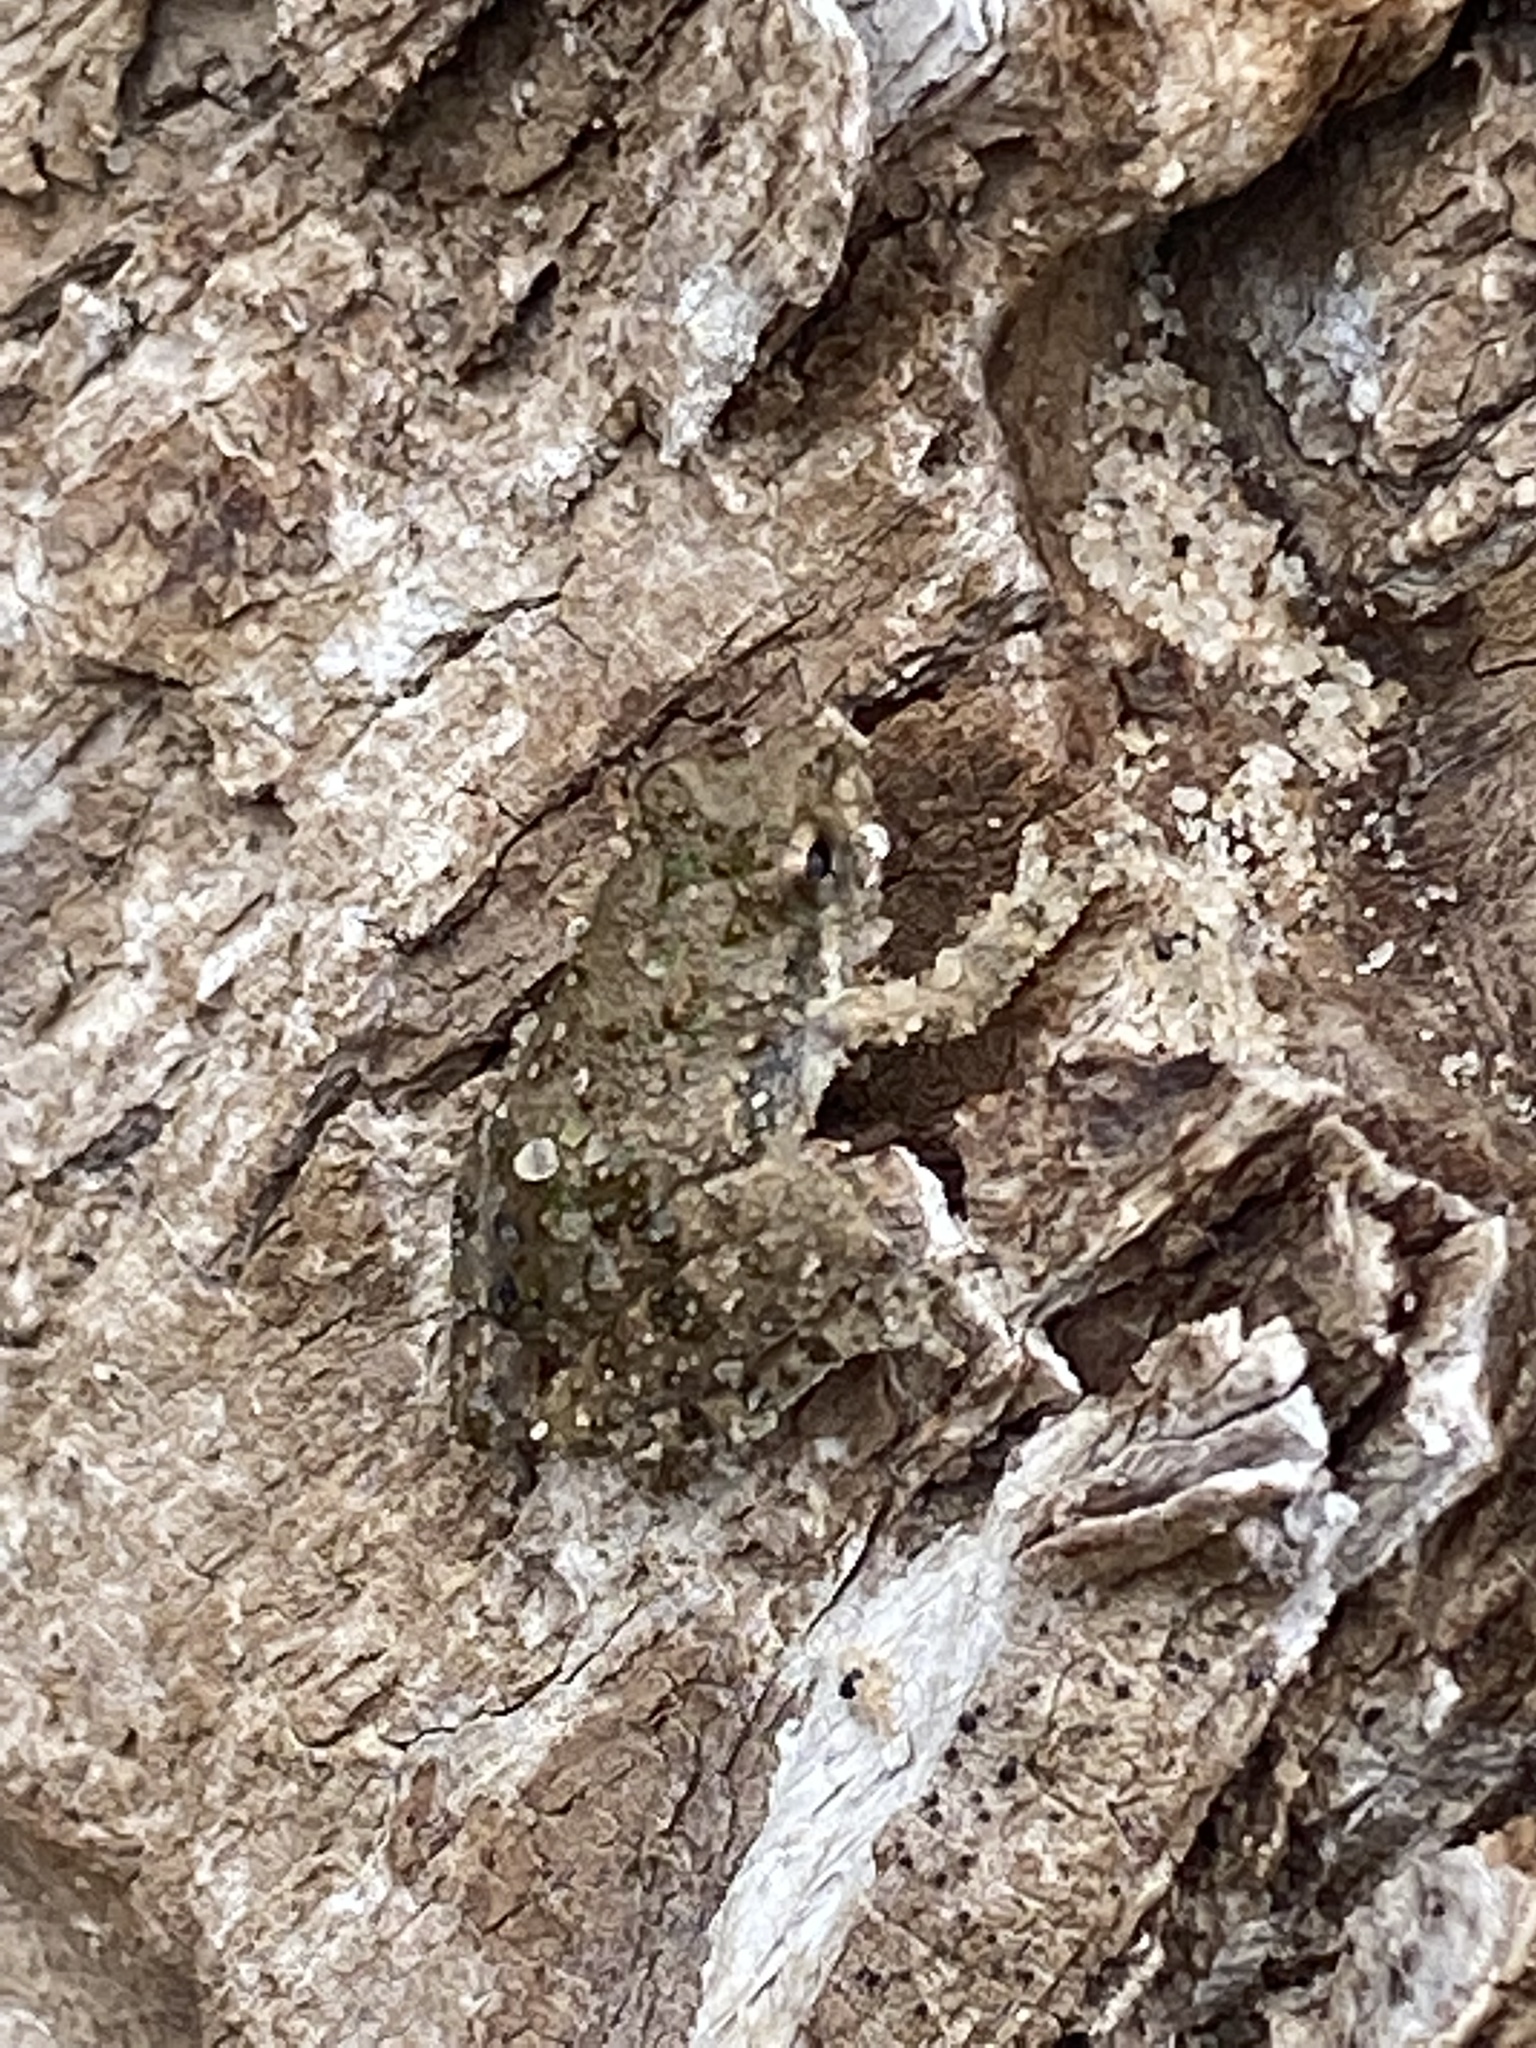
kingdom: Animalia
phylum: Chordata
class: Amphibia
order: Anura
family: Hylidae
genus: Acris
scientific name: Acris blanchardi
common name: Blanchard's cricket frog
